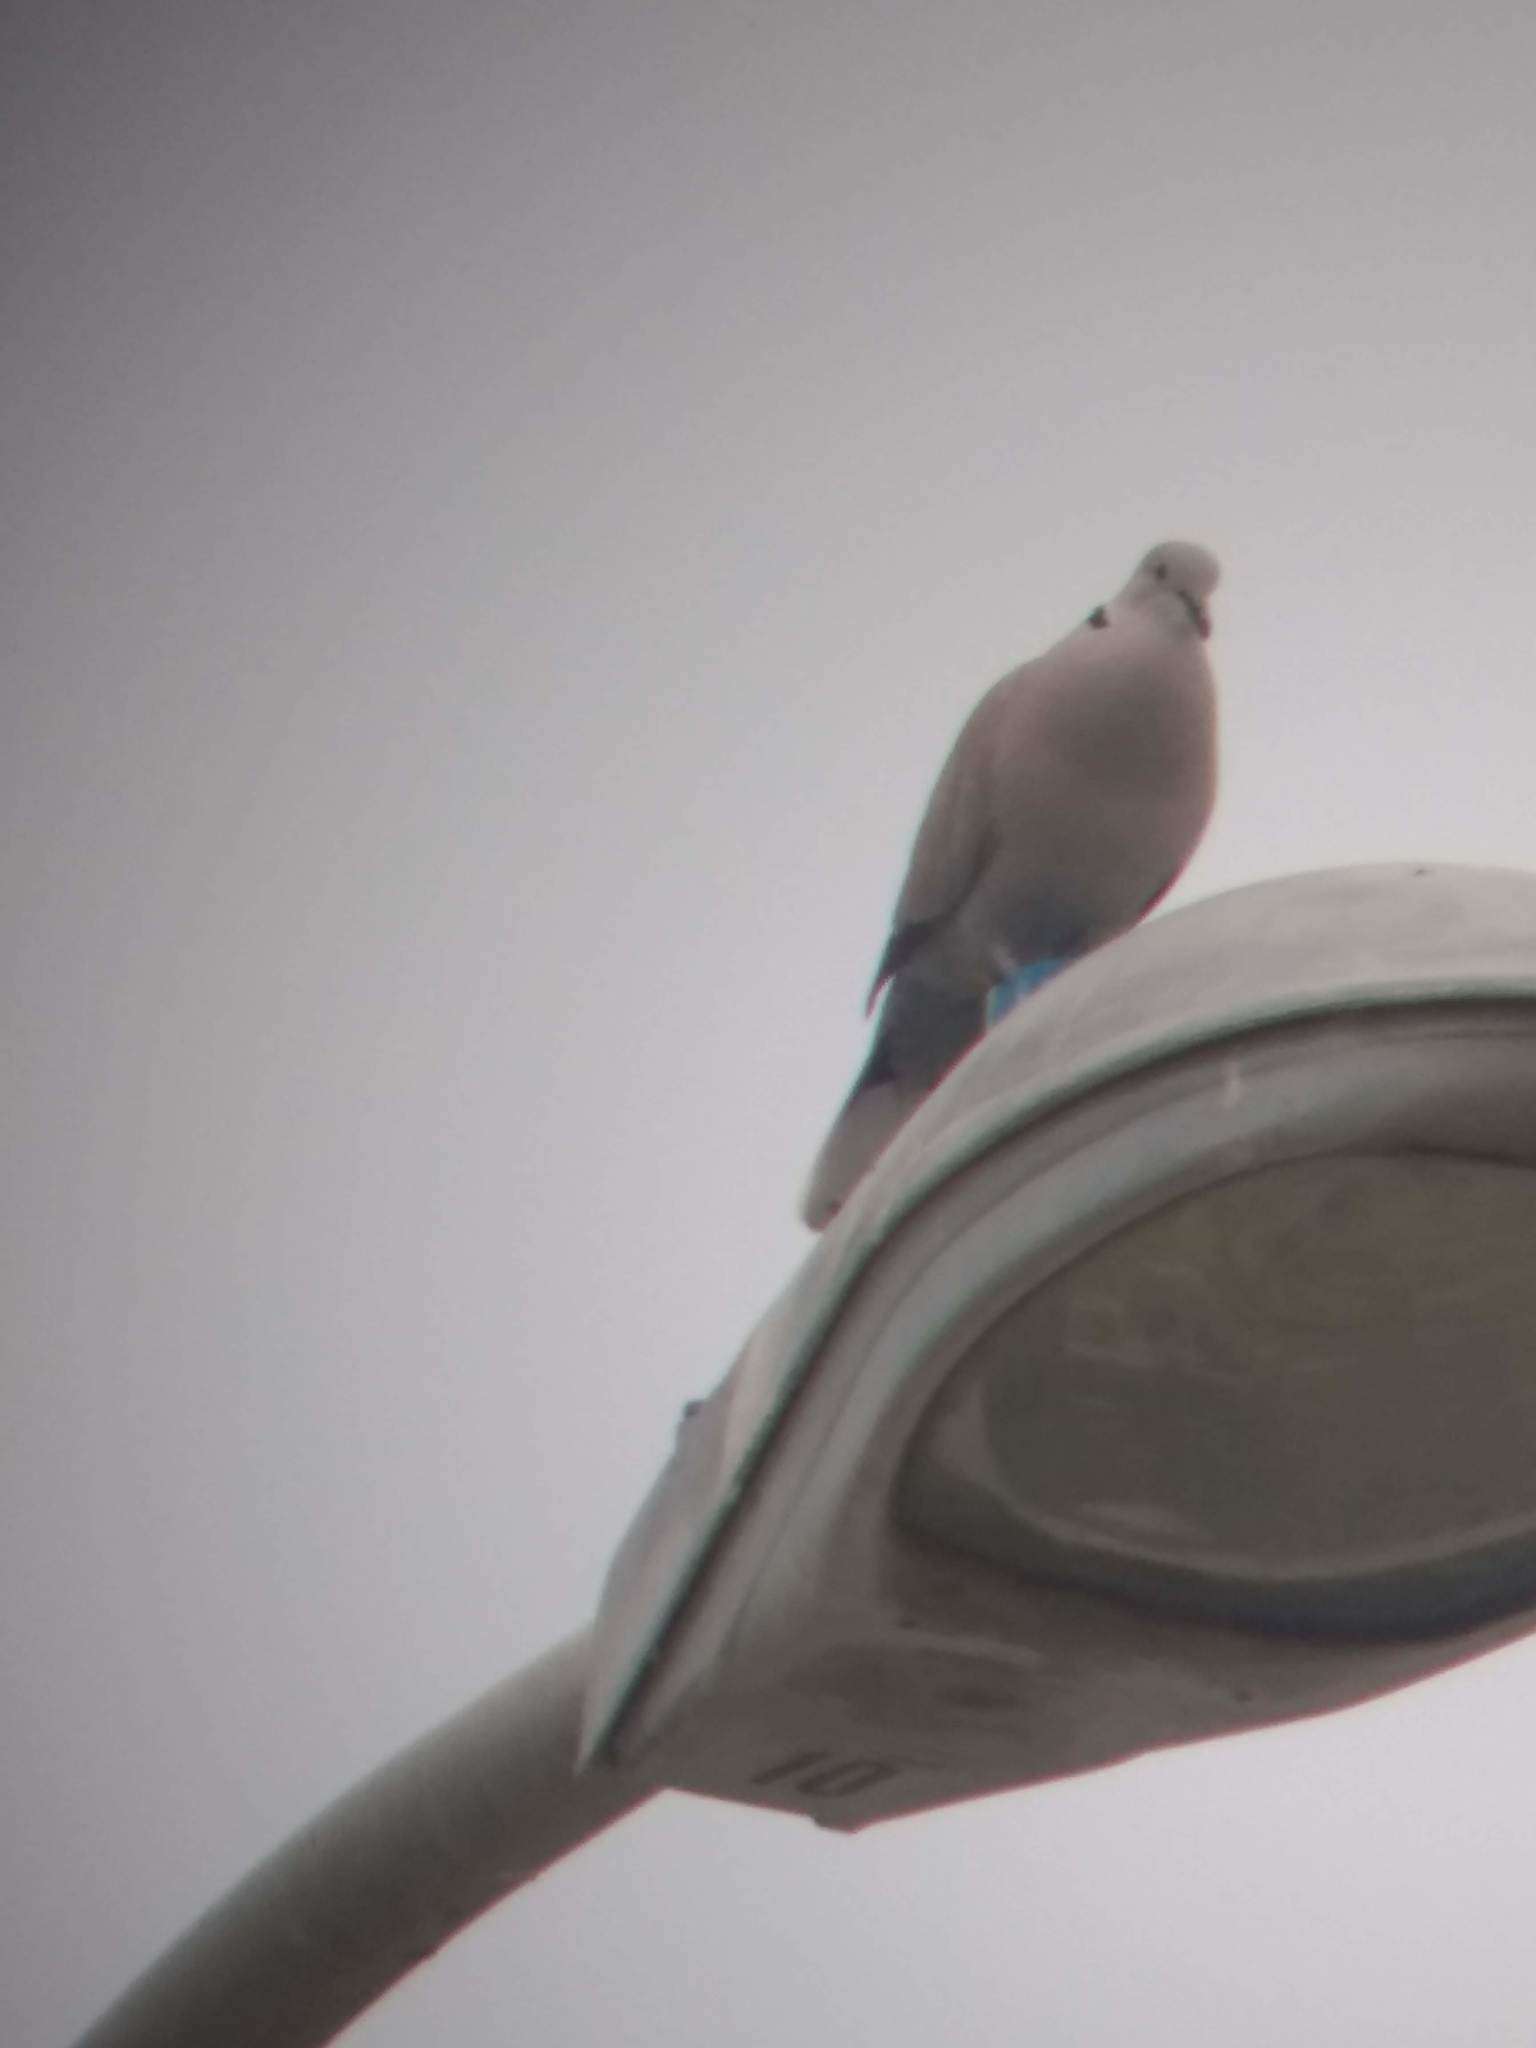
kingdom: Animalia
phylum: Chordata
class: Aves
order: Columbiformes
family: Columbidae
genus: Streptopelia
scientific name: Streptopelia decaocto
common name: Eurasian collared dove
